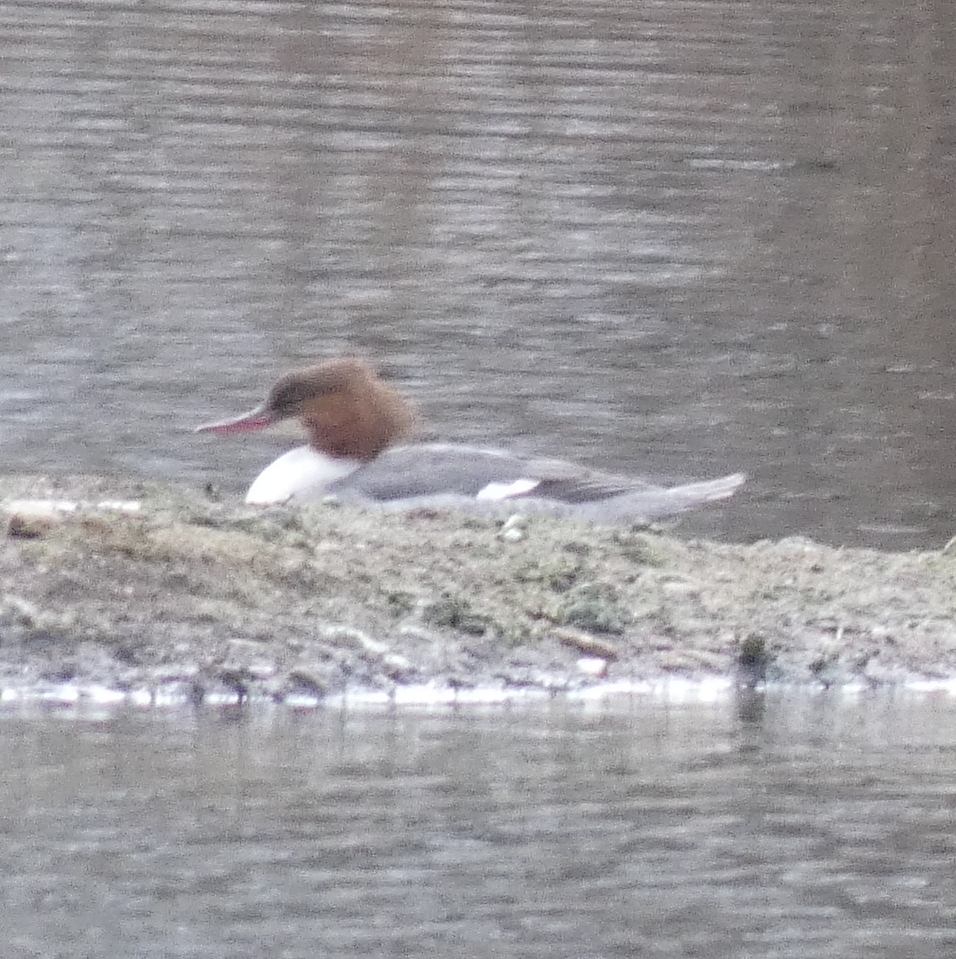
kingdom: Animalia
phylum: Chordata
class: Aves
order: Anseriformes
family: Anatidae
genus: Mergus
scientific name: Mergus merganser
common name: Common merganser
